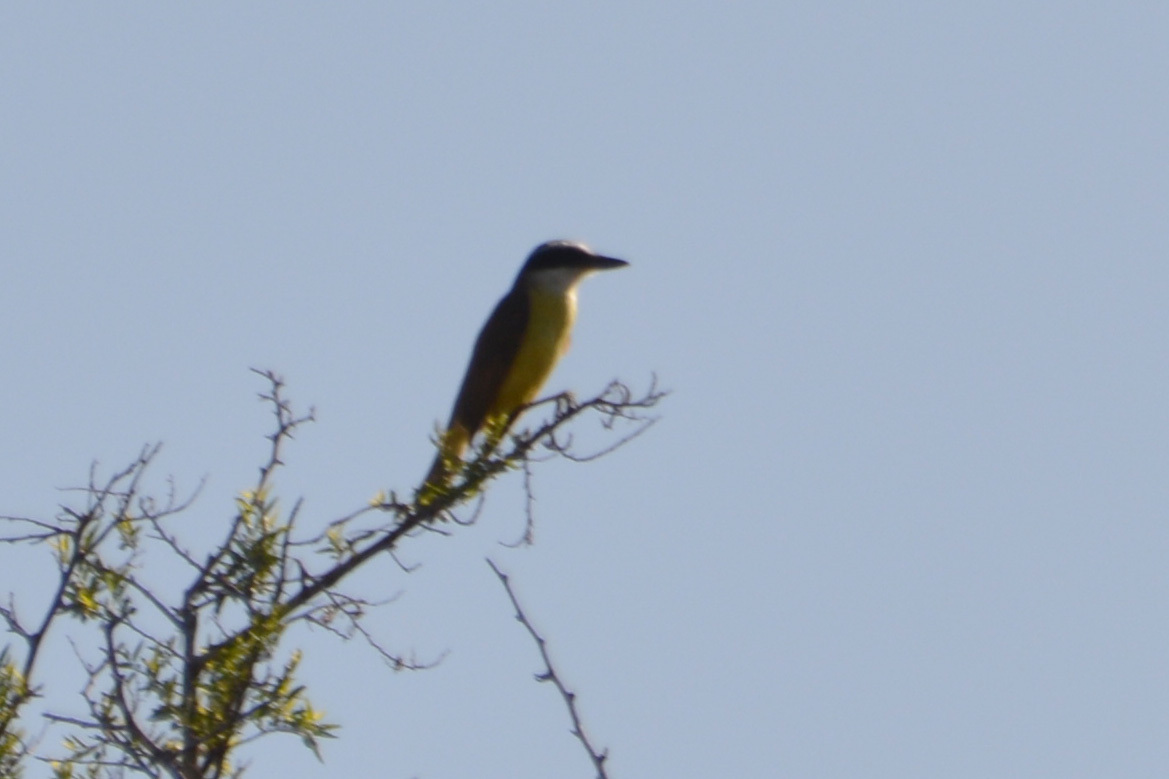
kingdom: Animalia
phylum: Chordata
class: Aves
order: Passeriformes
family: Tyrannidae
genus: Pitangus
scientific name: Pitangus sulphuratus
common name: Great kiskadee
